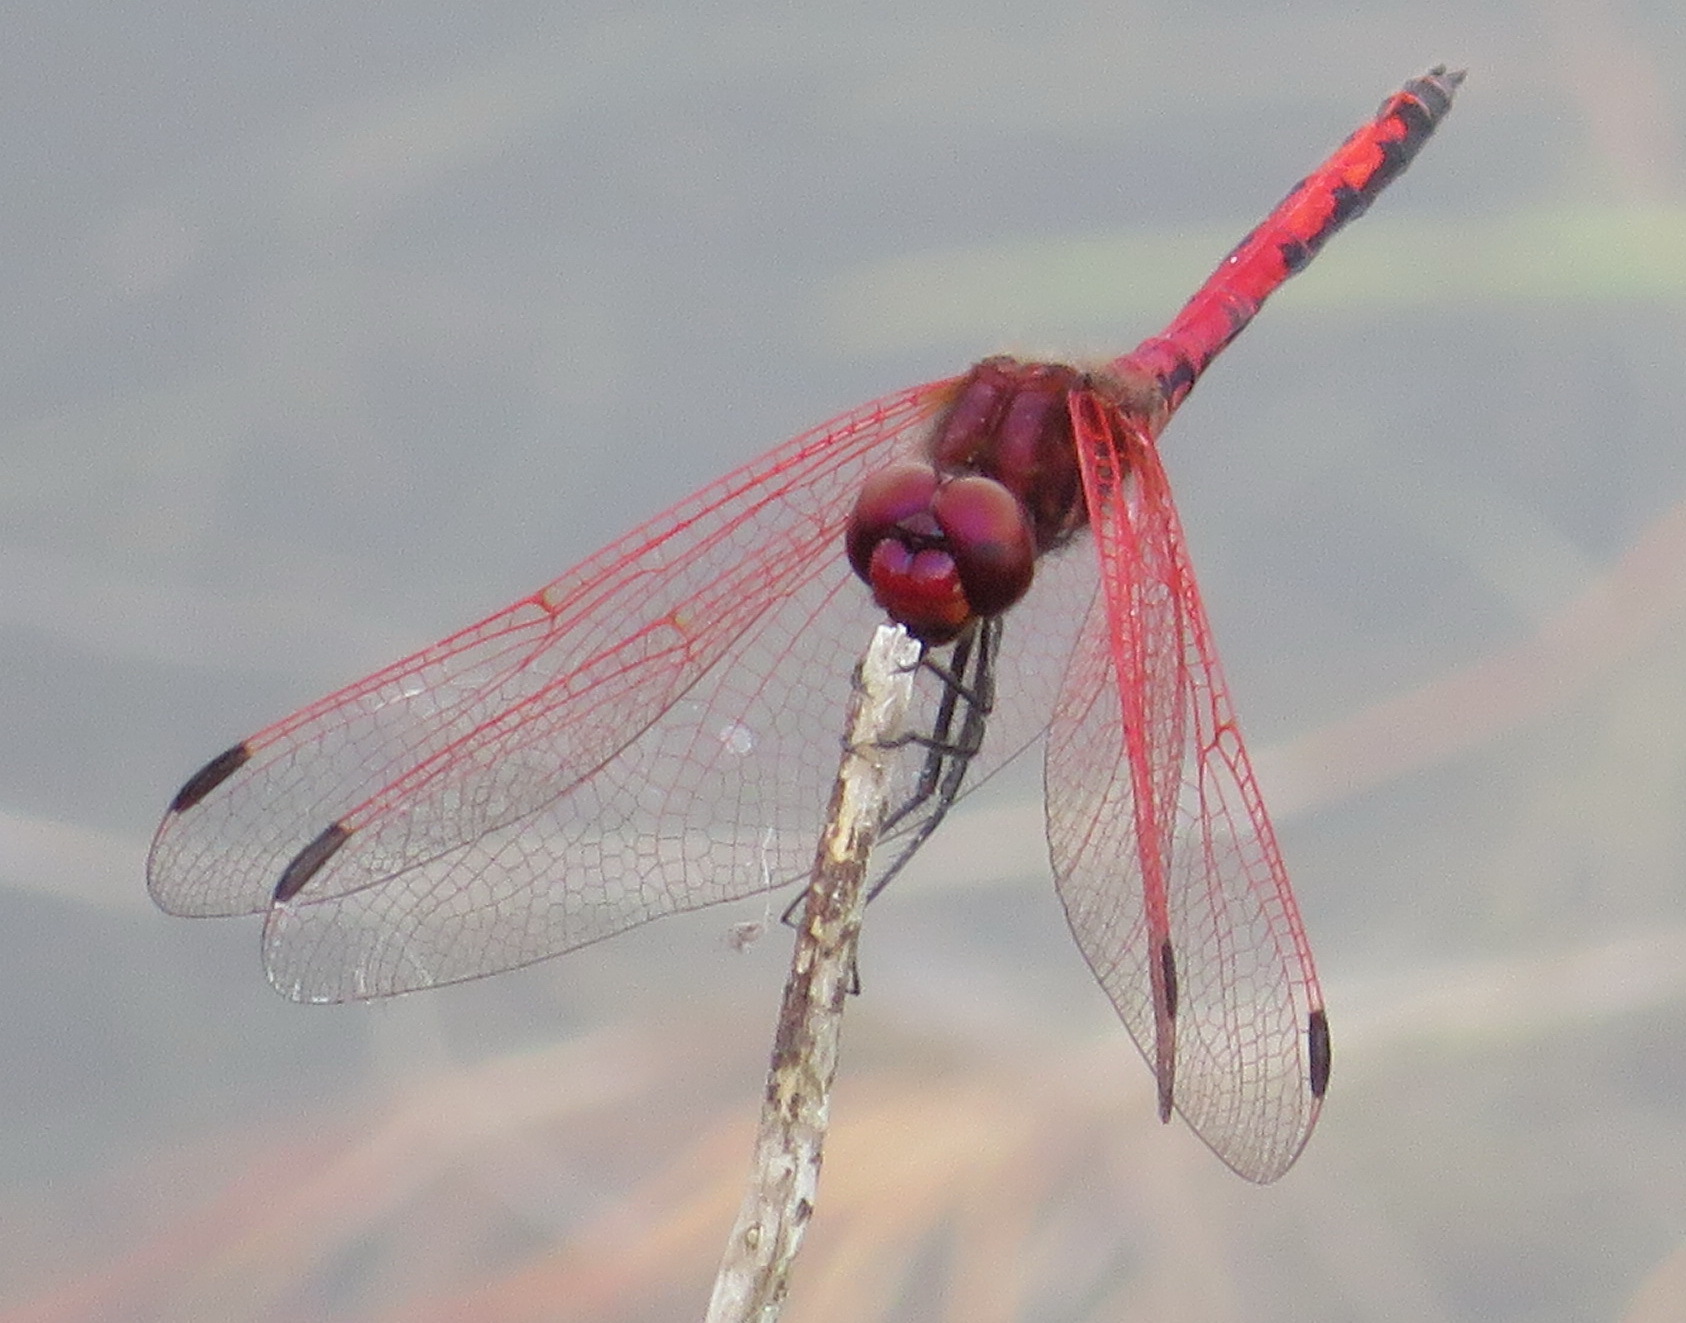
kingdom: Animalia
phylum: Arthropoda
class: Insecta
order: Odonata
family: Libellulidae
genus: Trithemis
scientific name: Trithemis arteriosa
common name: Red-veined dropwing
